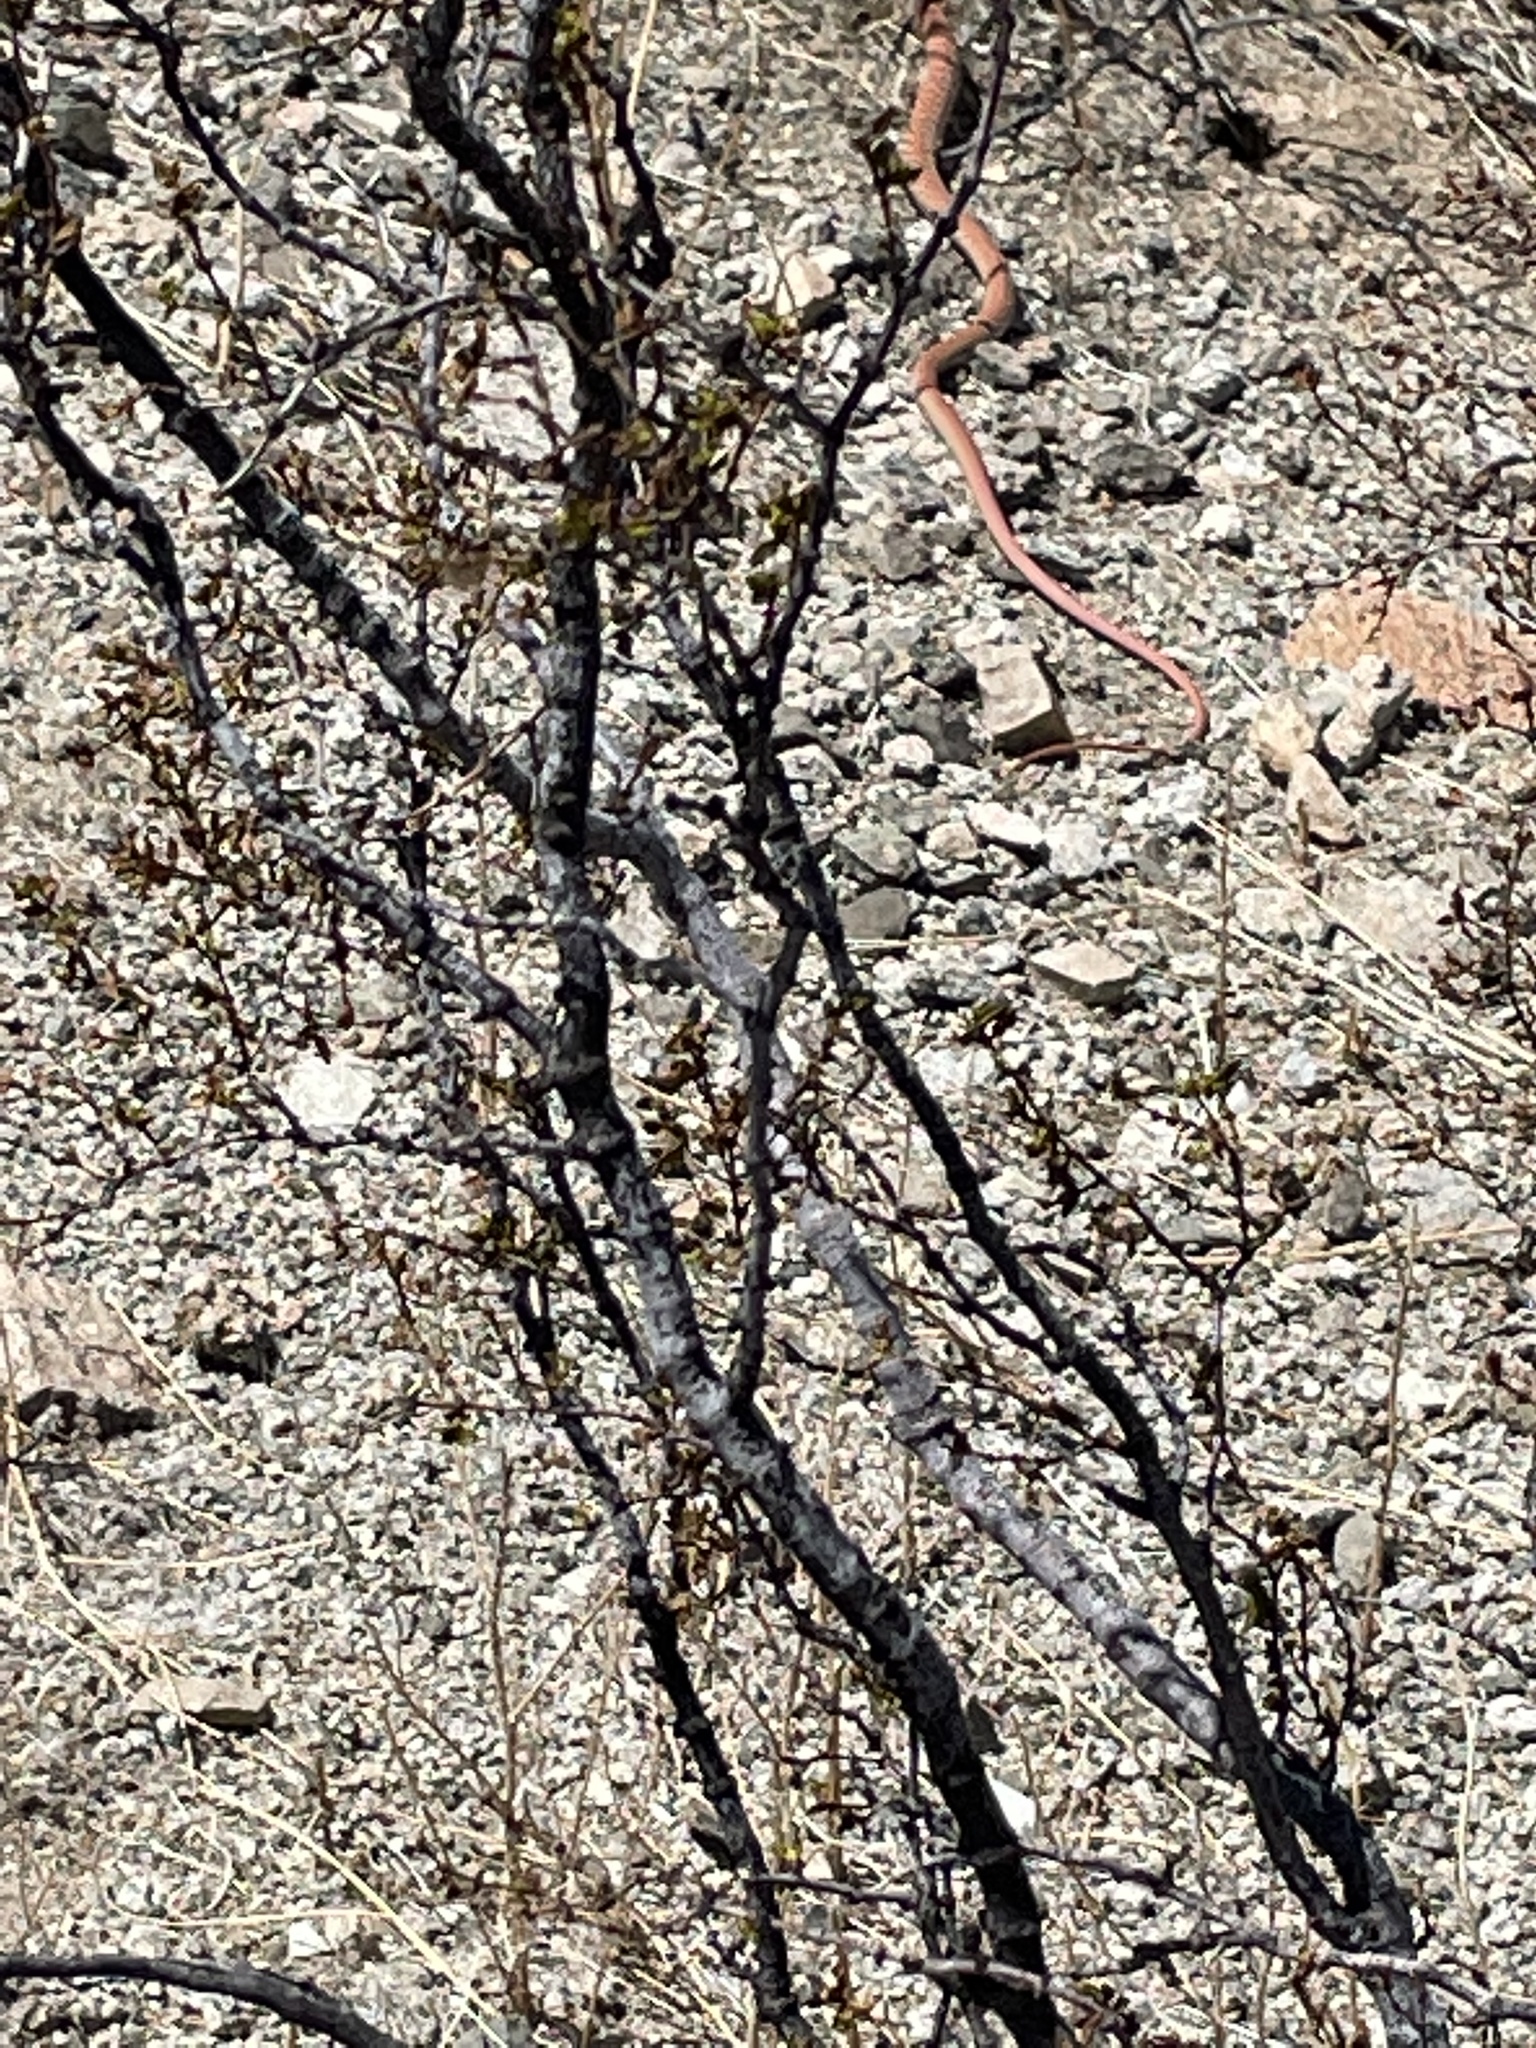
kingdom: Animalia
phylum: Chordata
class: Squamata
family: Colubridae
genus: Masticophis
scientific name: Masticophis flagellum
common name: Coachwhip
